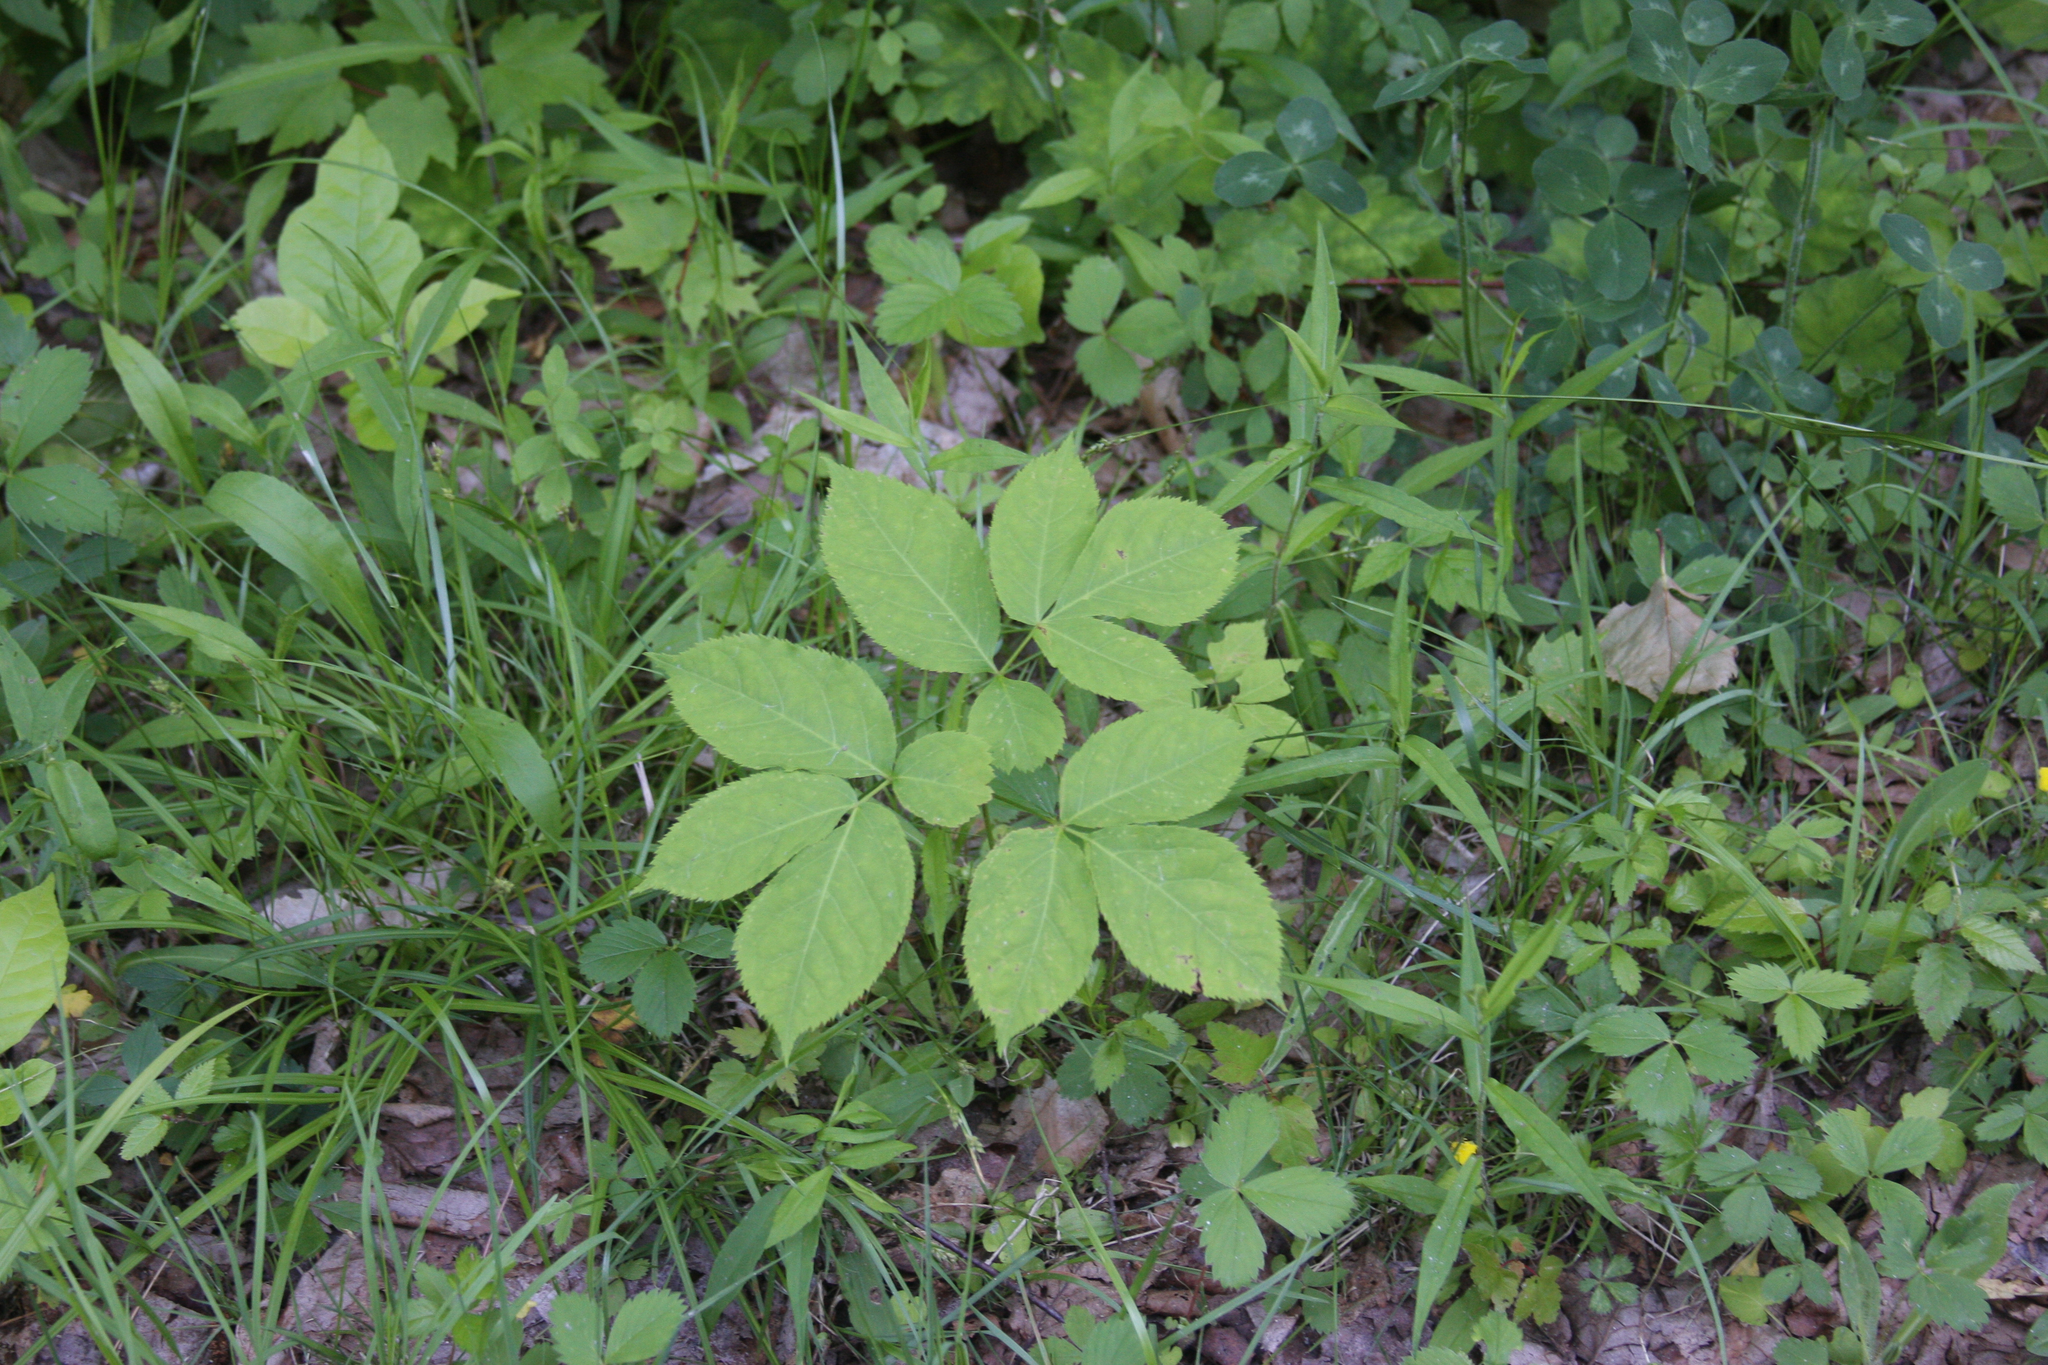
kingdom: Plantae
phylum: Tracheophyta
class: Magnoliopsida
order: Apiales
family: Araliaceae
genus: Aralia
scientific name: Aralia nudicaulis
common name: Wild sarsaparilla
